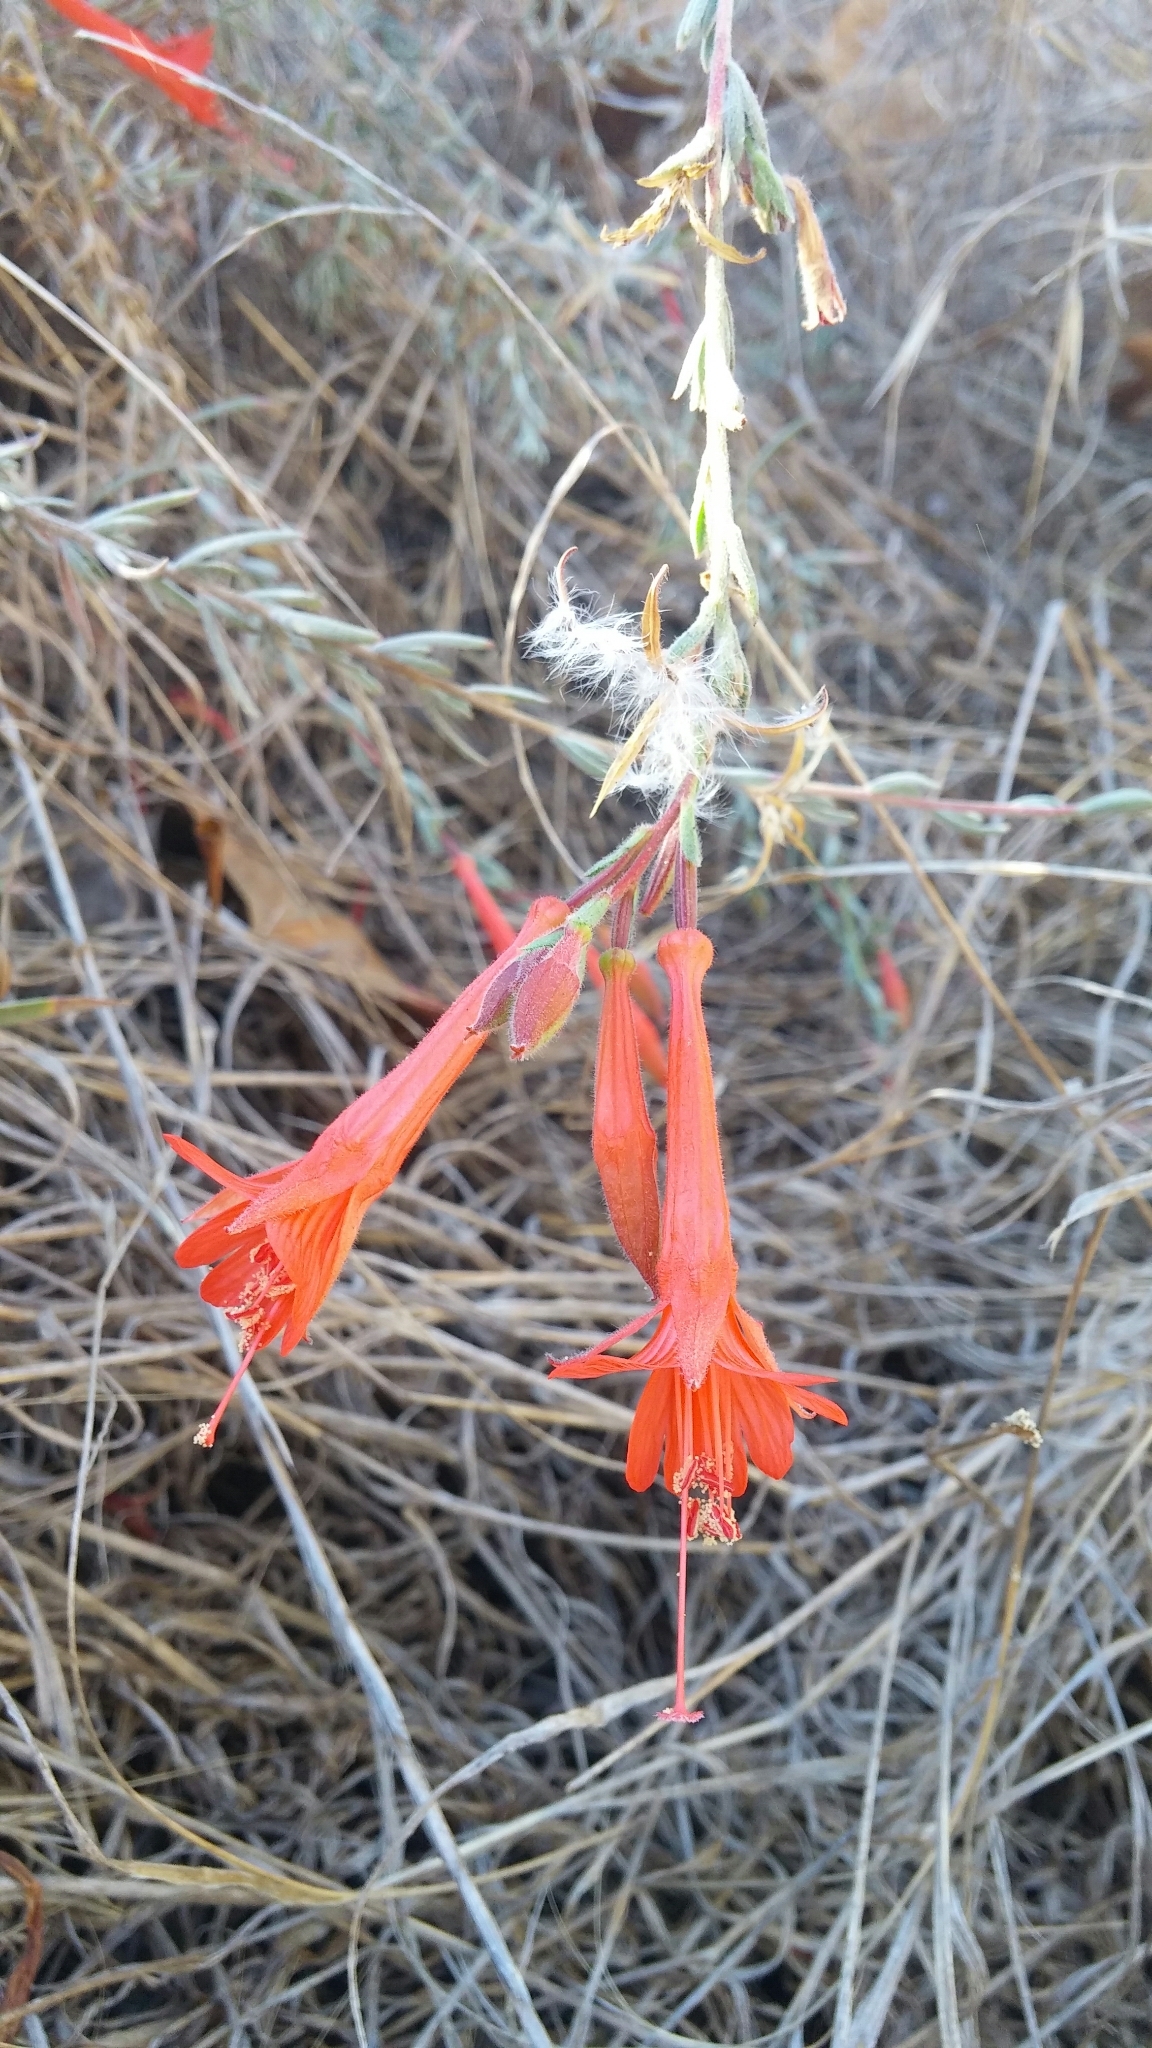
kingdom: Plantae
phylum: Tracheophyta
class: Magnoliopsida
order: Myrtales
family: Onagraceae
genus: Epilobium
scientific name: Epilobium canum
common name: California-fuchsia
